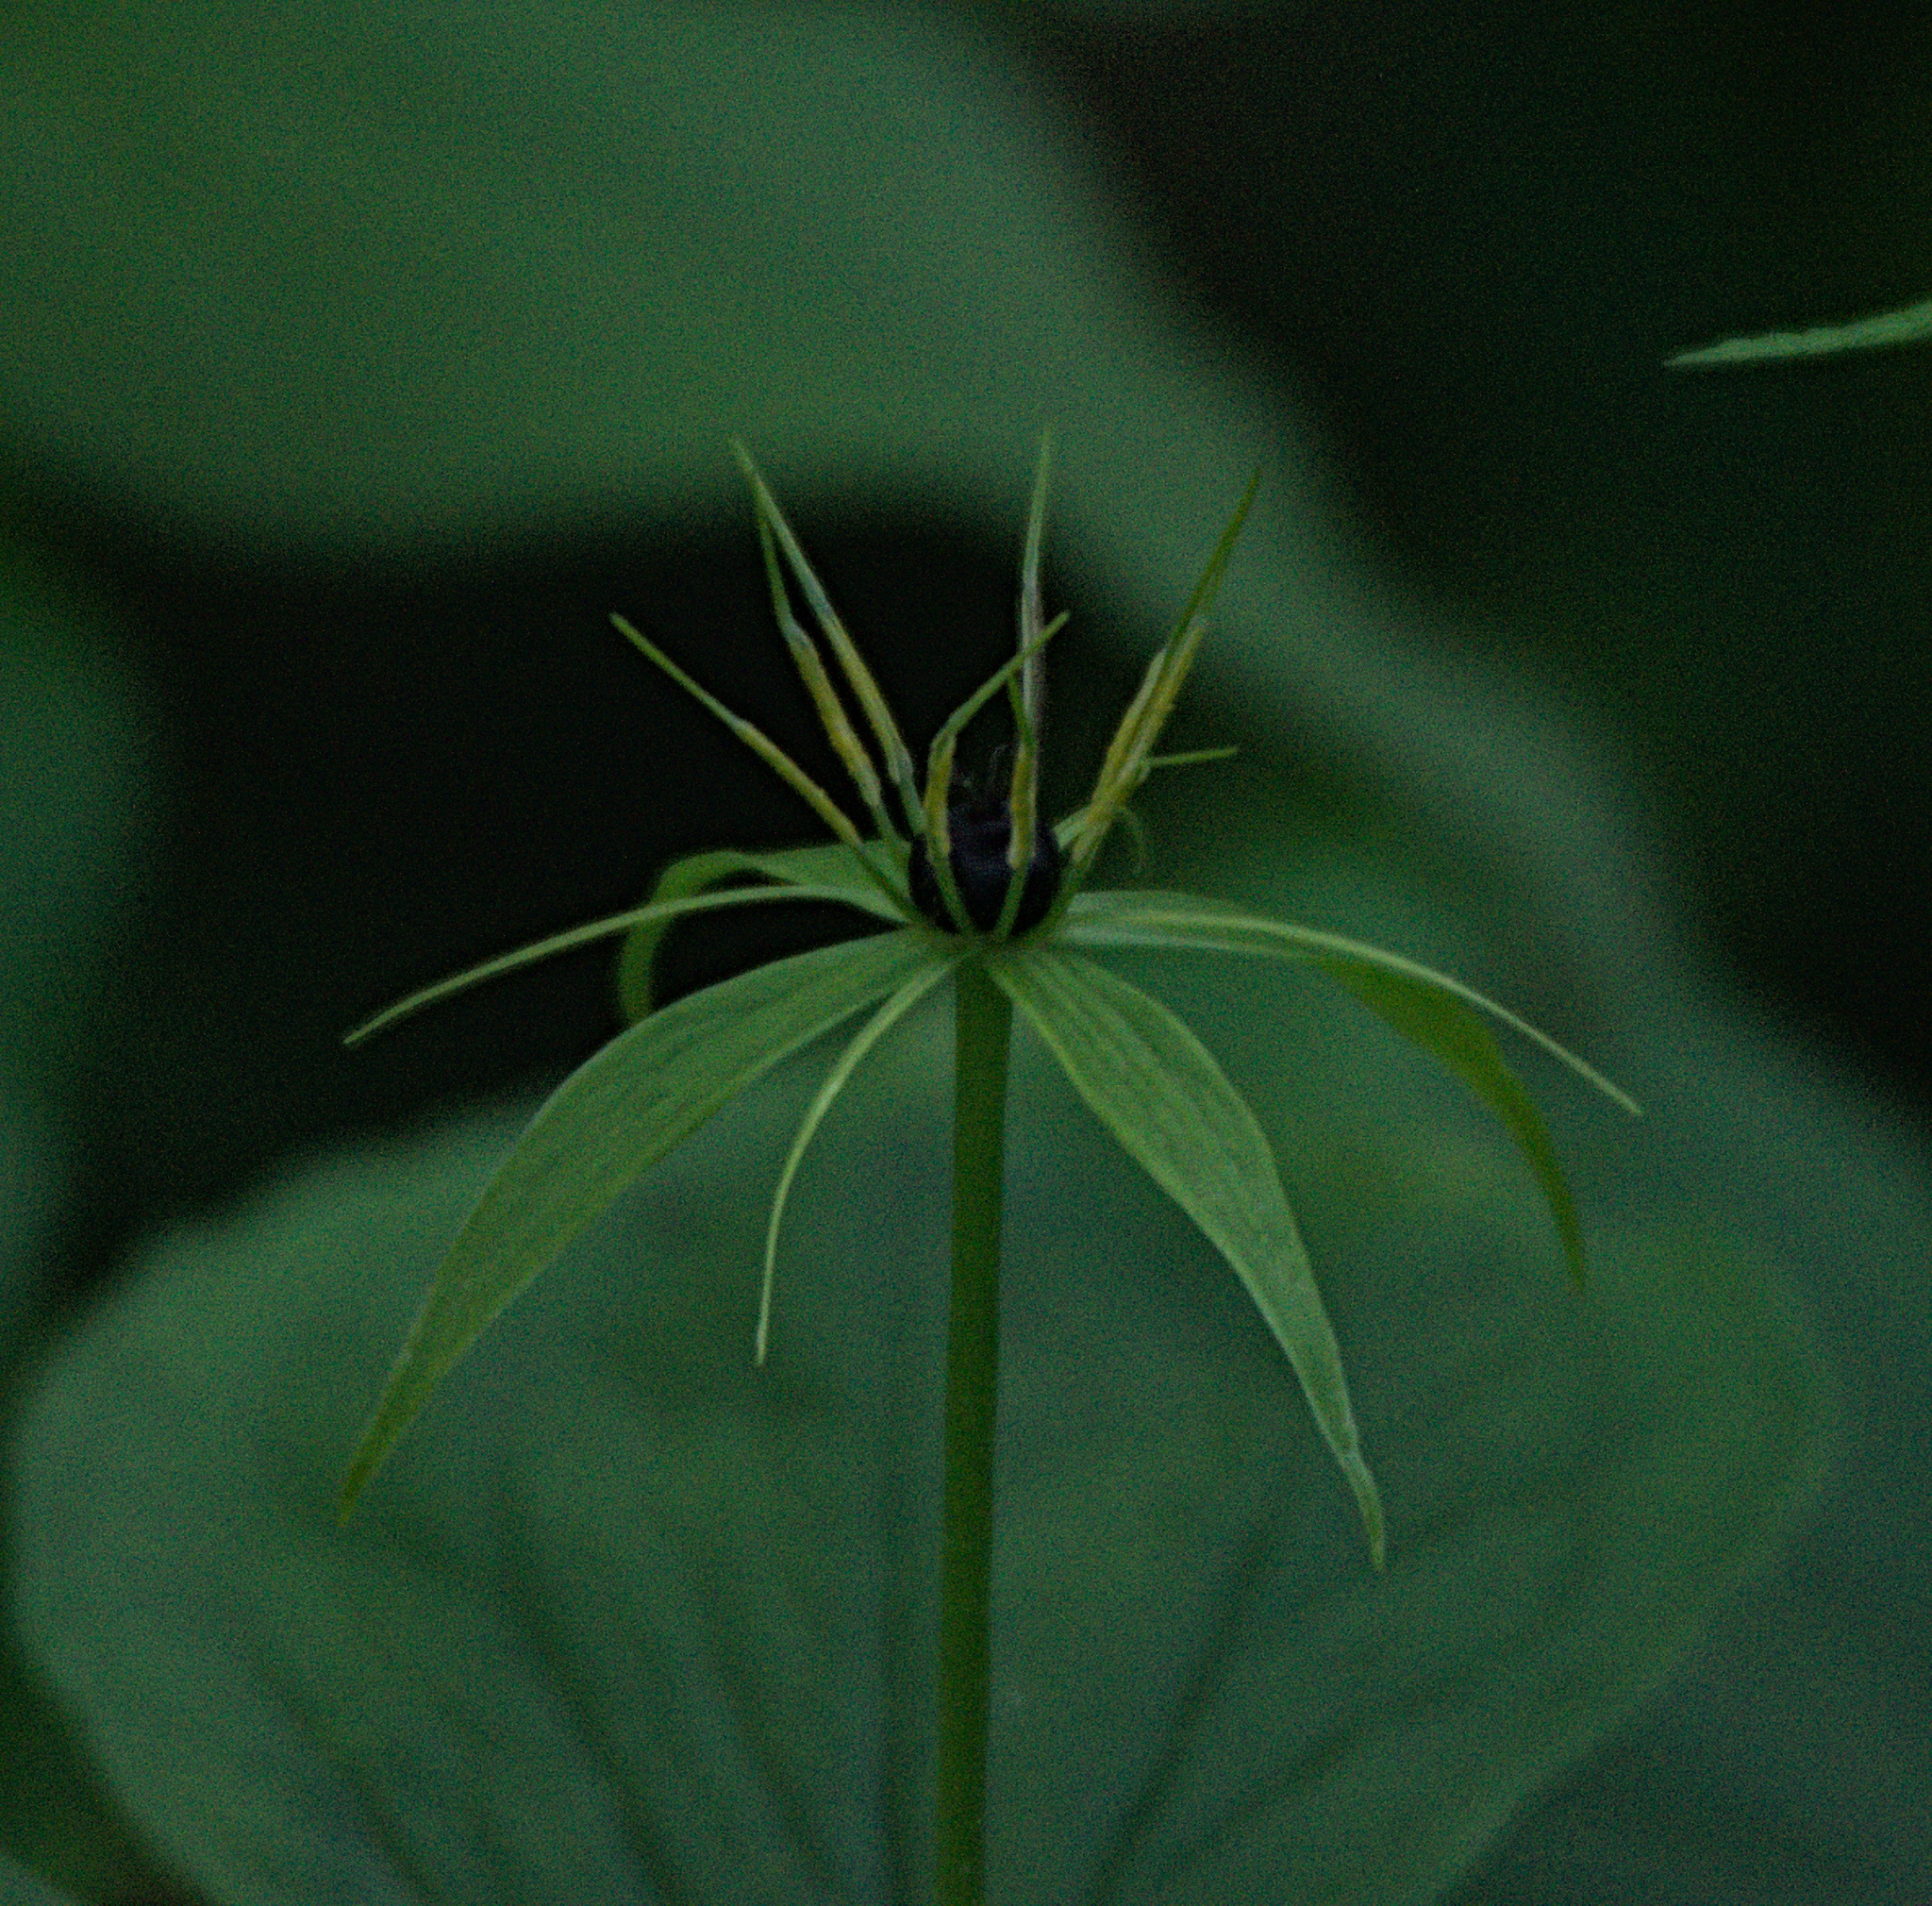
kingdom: Plantae
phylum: Tracheophyta
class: Liliopsida
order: Liliales
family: Melanthiaceae
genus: Paris
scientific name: Paris quadrifolia
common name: Herb-paris
